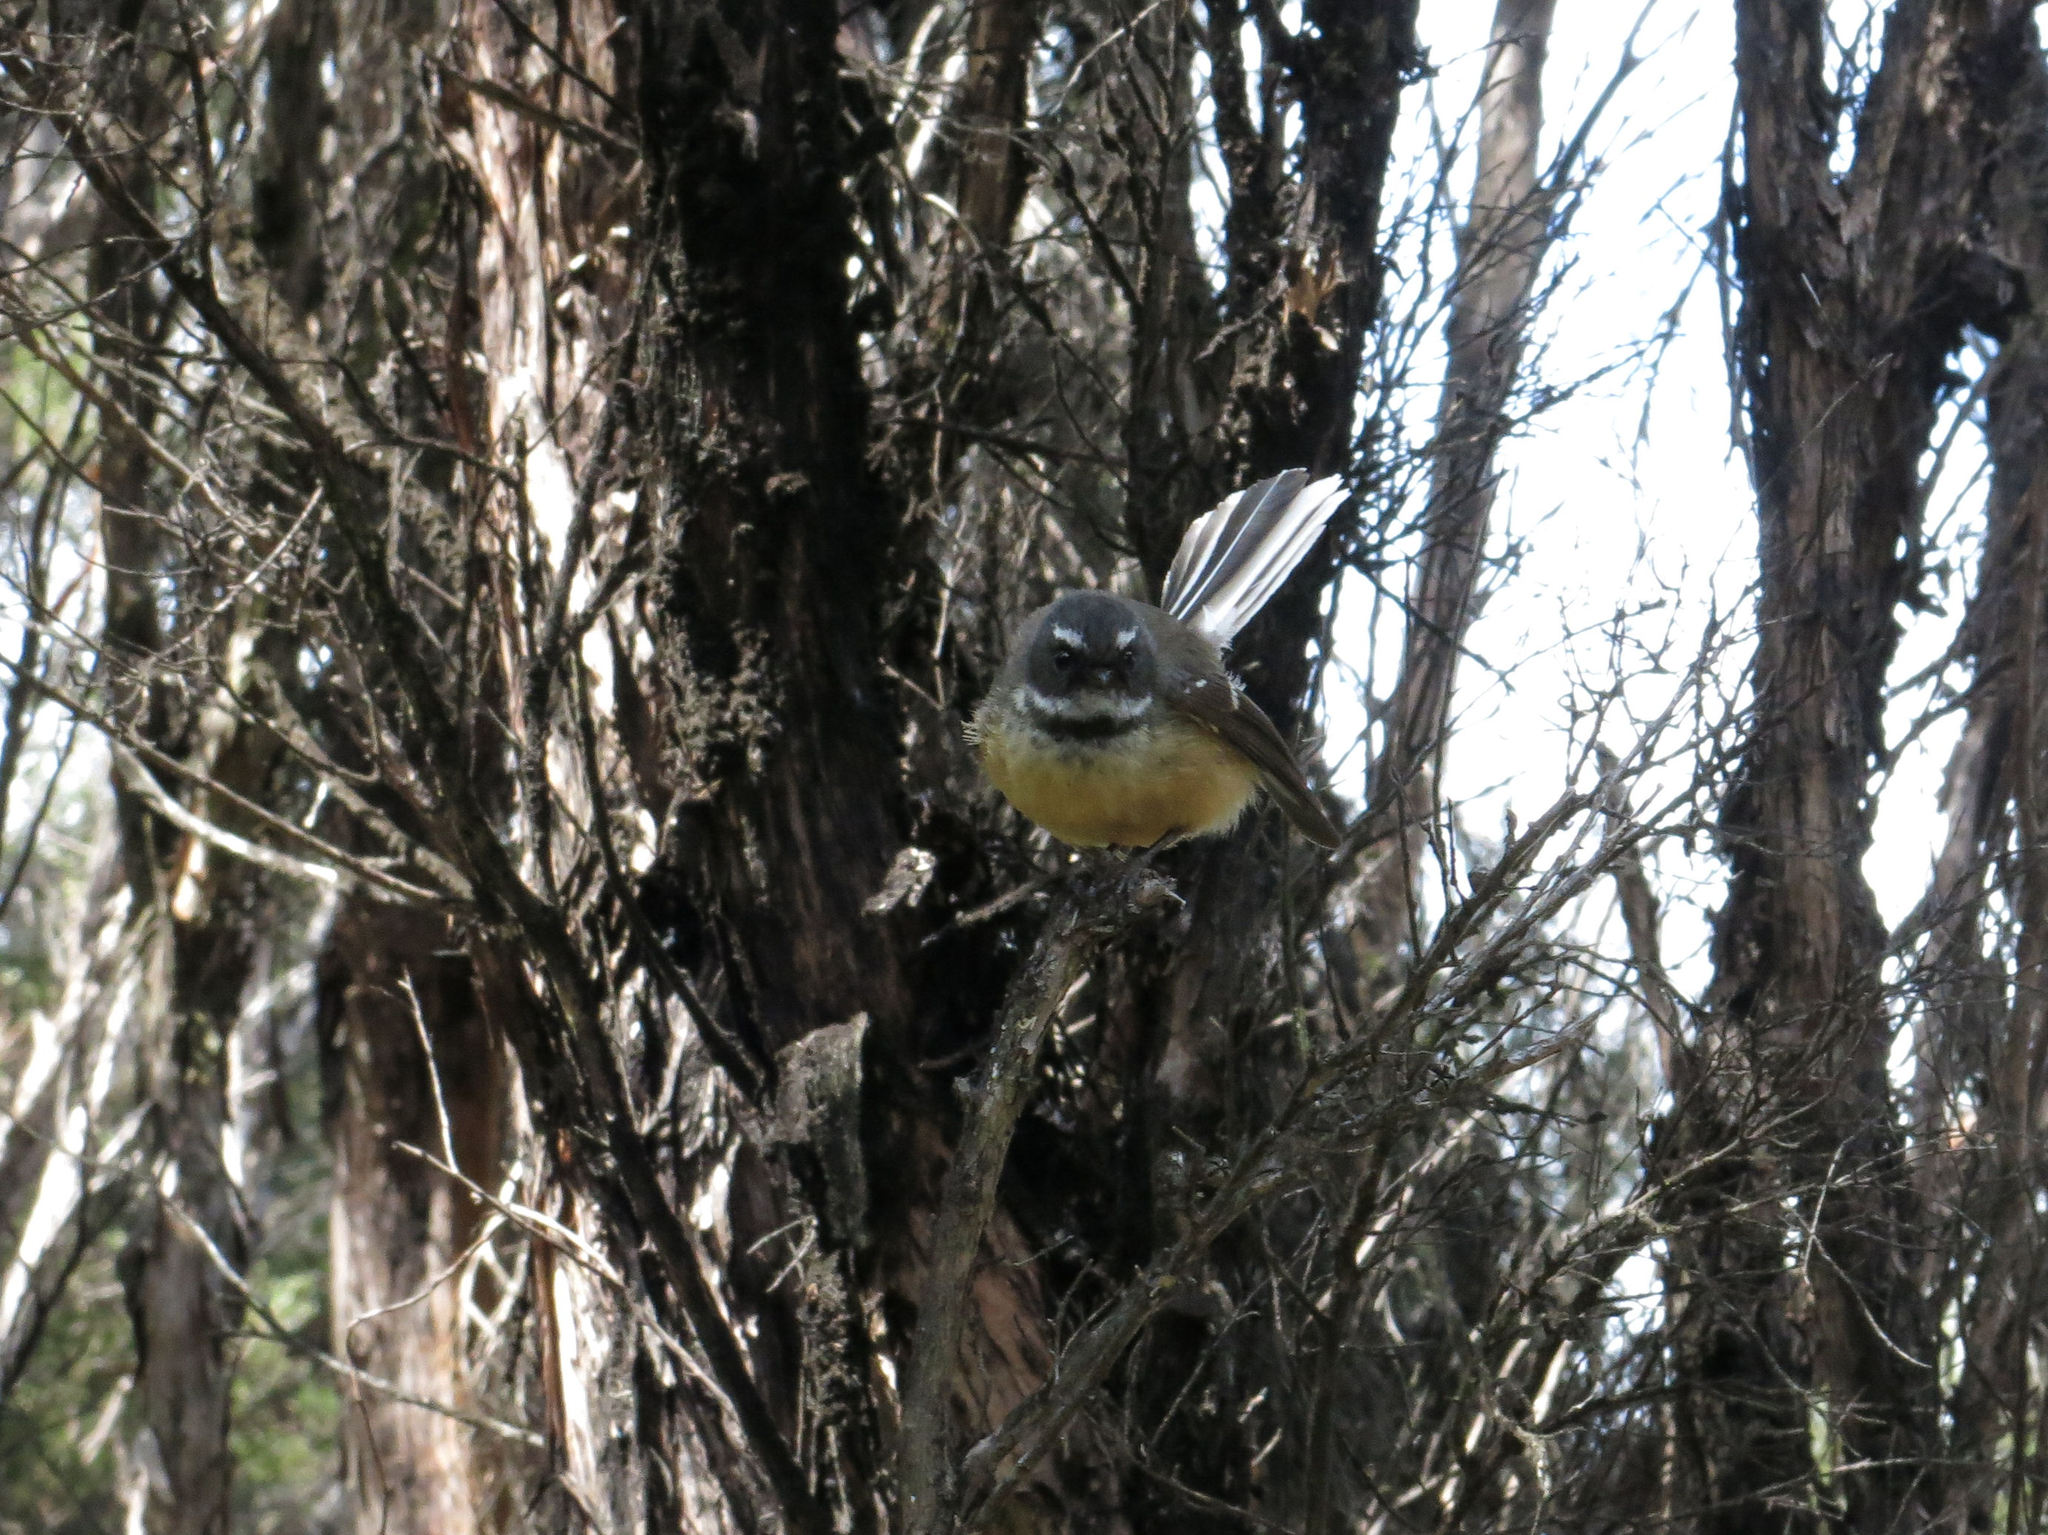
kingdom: Animalia
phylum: Chordata
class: Aves
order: Passeriformes
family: Rhipiduridae
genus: Rhipidura
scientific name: Rhipidura fuliginosa
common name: New zealand fantail
